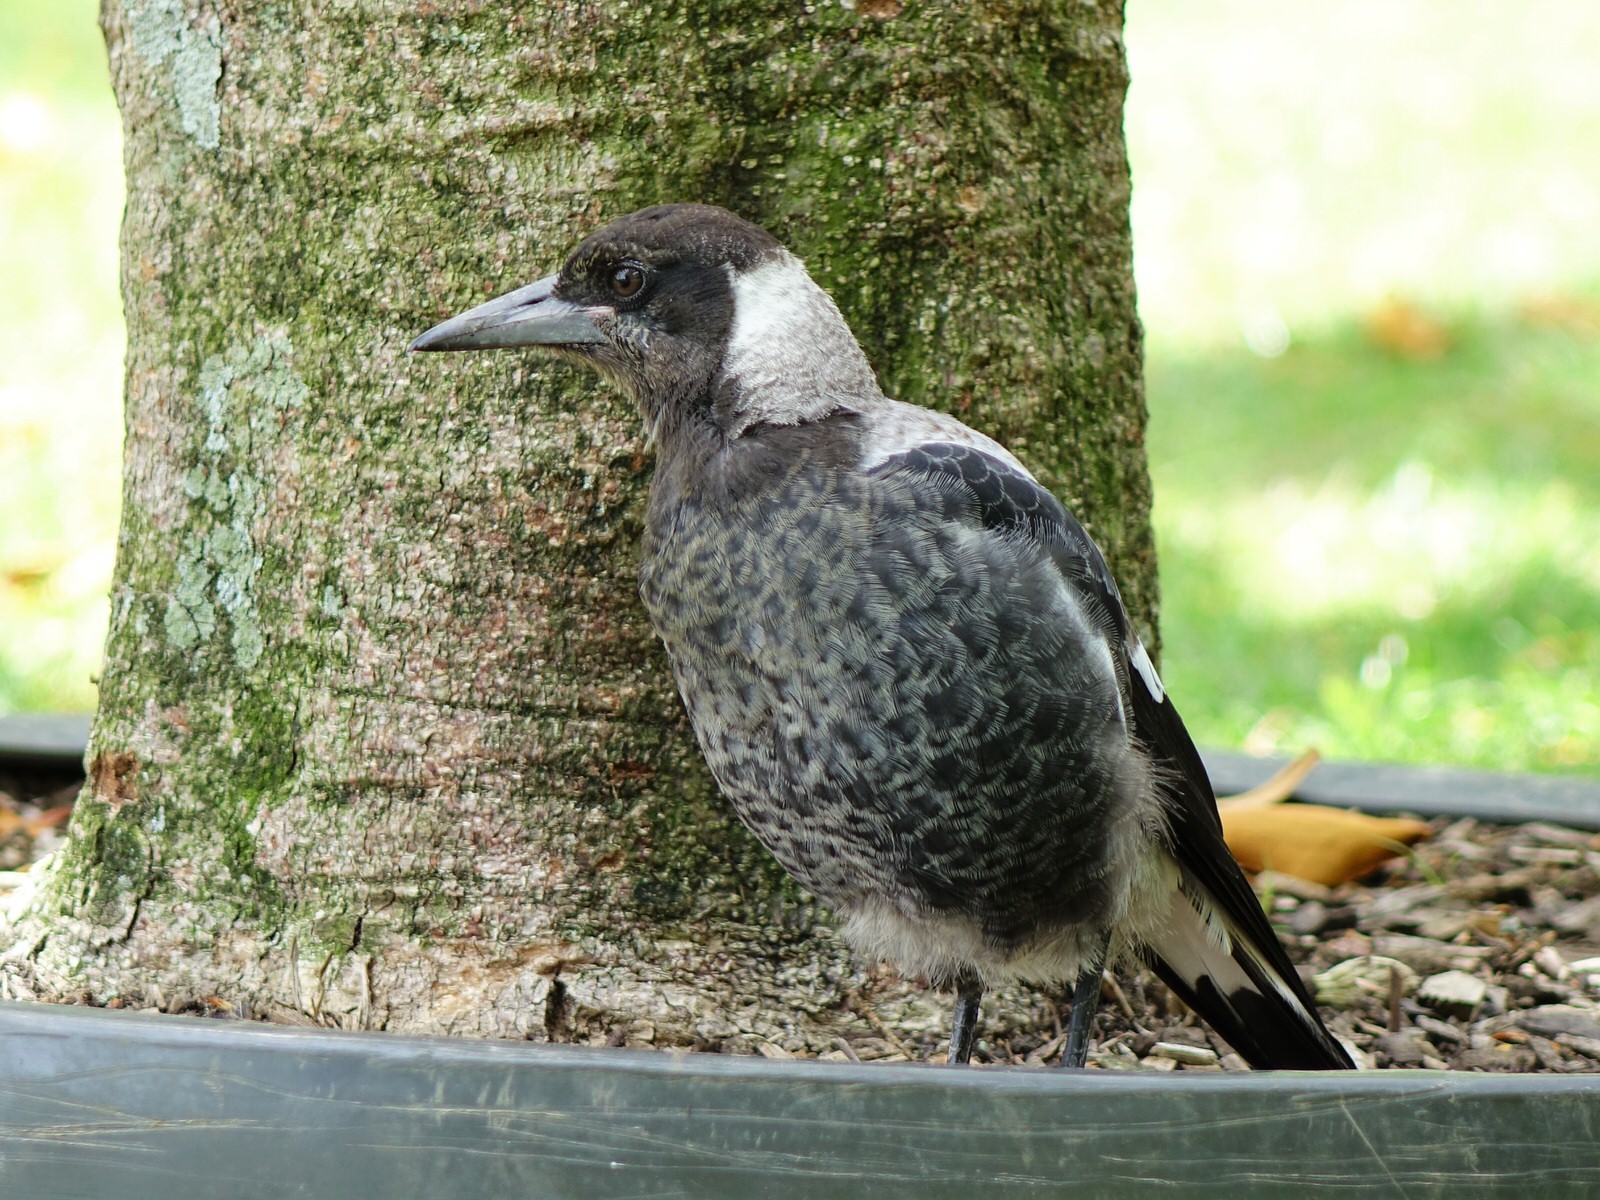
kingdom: Animalia
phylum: Chordata
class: Aves
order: Passeriformes
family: Cracticidae
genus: Gymnorhina
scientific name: Gymnorhina tibicen
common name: Australian magpie
